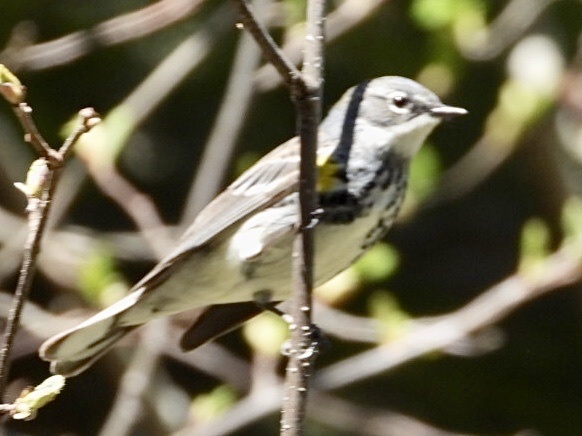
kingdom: Animalia
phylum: Chordata
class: Aves
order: Passeriformes
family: Parulidae
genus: Setophaga
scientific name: Setophaga coronata
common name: Myrtle warbler
